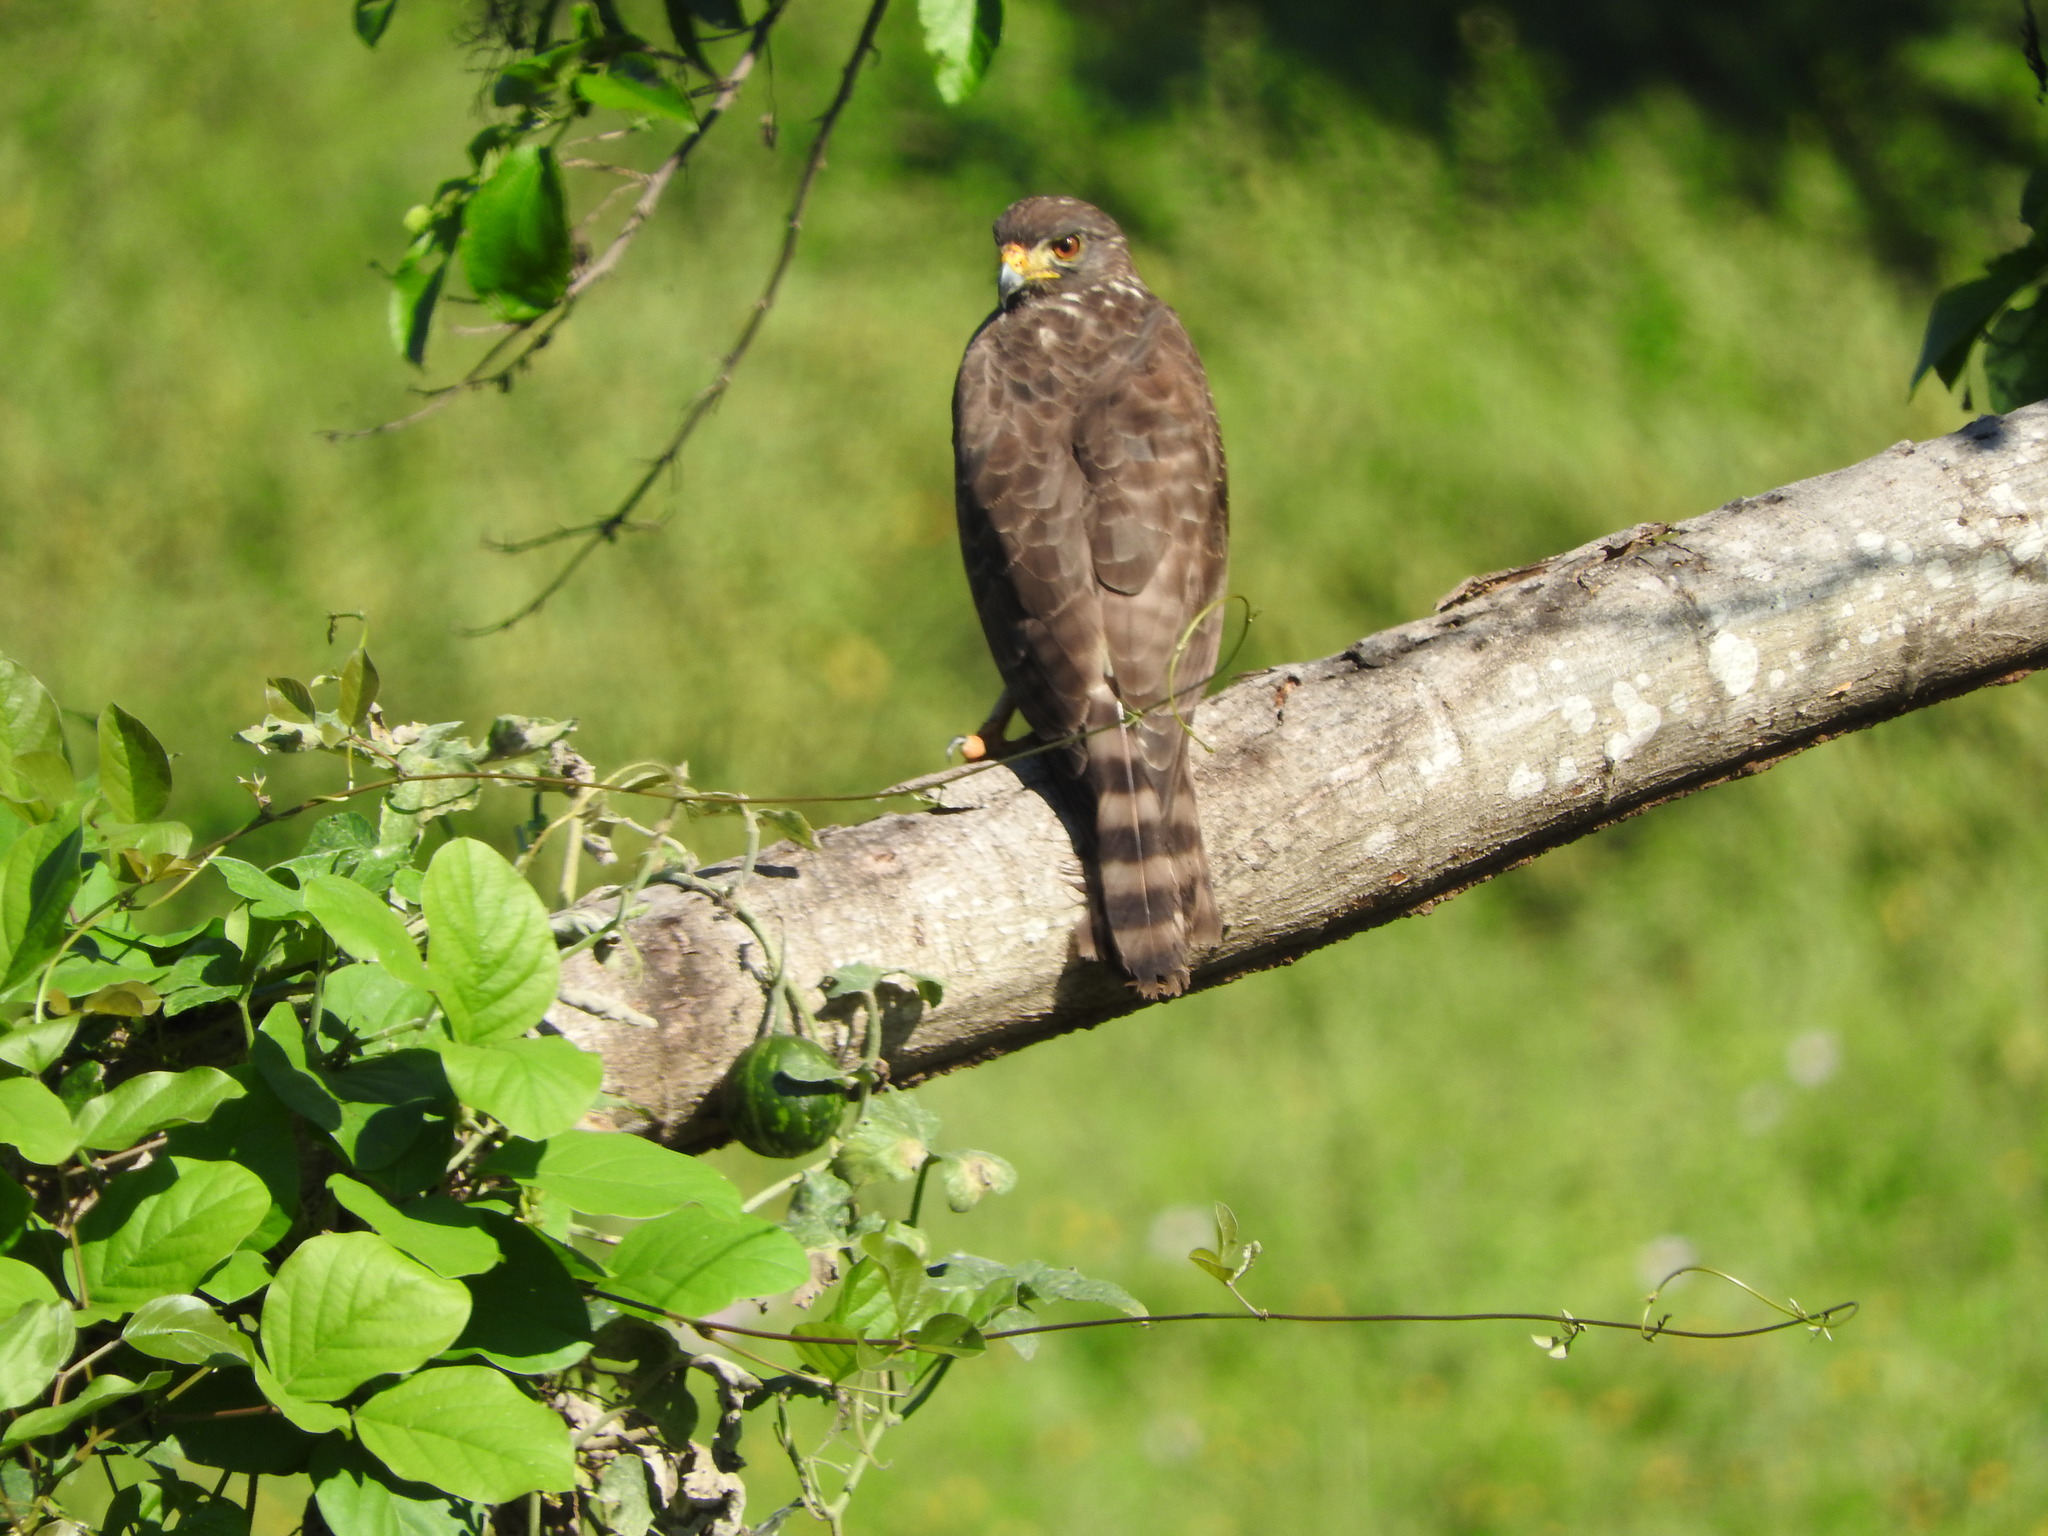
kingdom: Animalia
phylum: Chordata
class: Aves
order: Accipitriformes
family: Accipitridae
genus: Rupornis
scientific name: Rupornis magnirostris
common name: Roadside hawk
